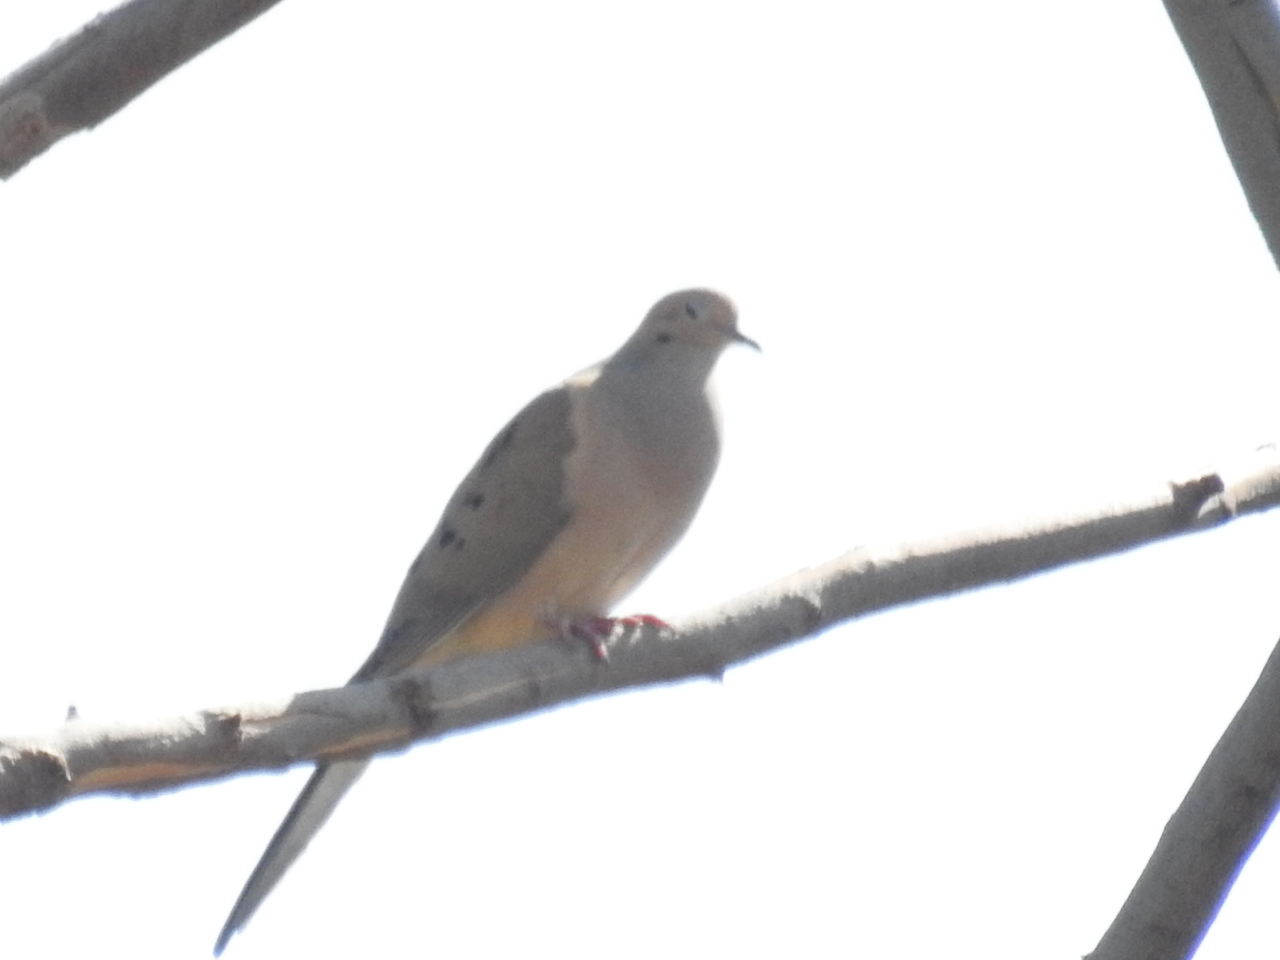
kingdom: Animalia
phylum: Chordata
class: Aves
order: Columbiformes
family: Columbidae
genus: Zenaida
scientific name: Zenaida macroura
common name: Mourning dove
